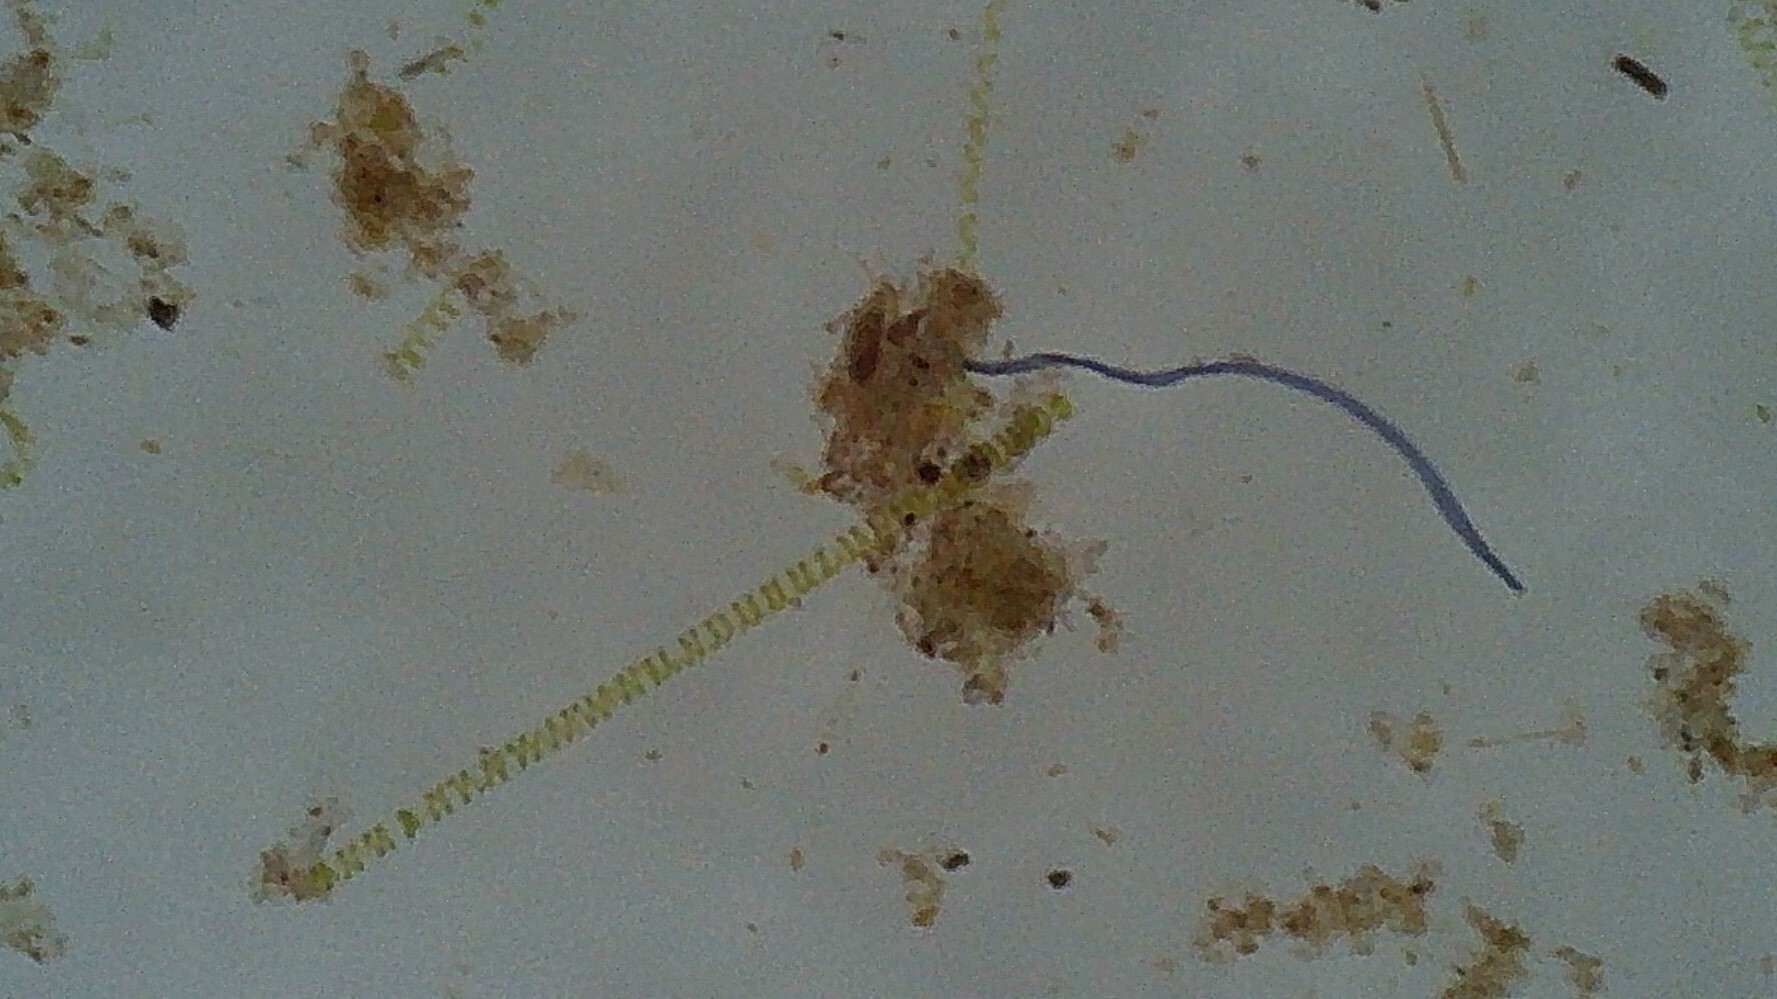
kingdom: Plantae
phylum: Charophyta
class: Zygnematophyceae
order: Zygnematales
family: Zygnemataceae
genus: Spirogyra
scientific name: Spirogyra
